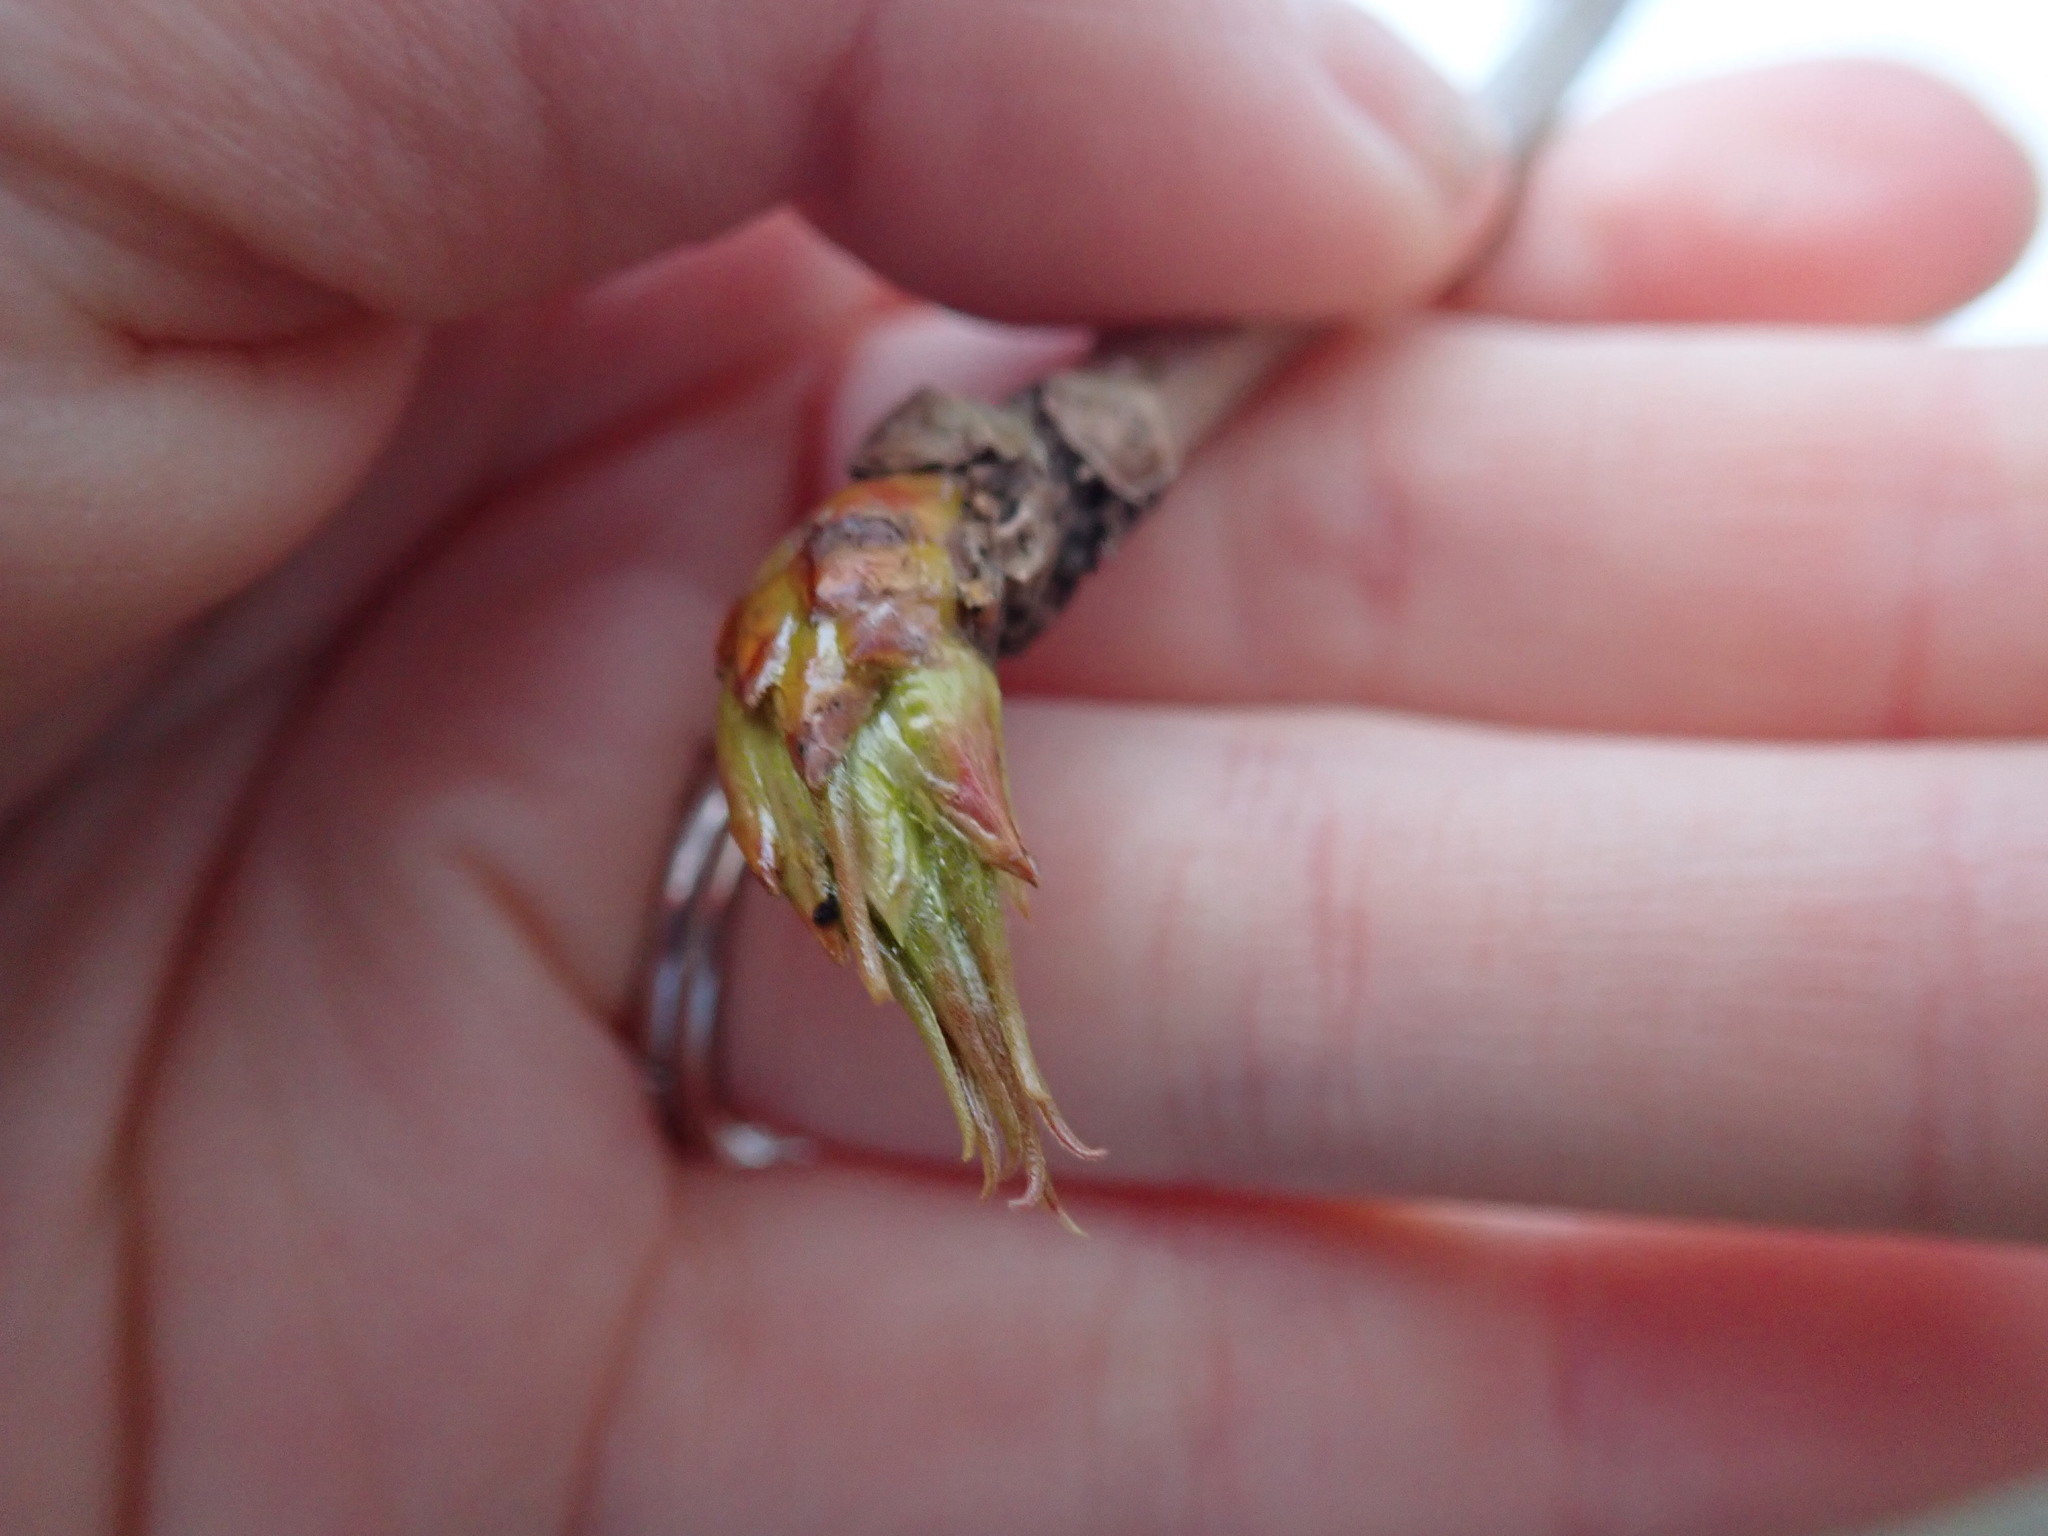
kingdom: Plantae
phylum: Tracheophyta
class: Magnoliopsida
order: Malpighiales
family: Salicaceae
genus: Populus
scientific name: Populus deltoides
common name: Eastern cottonwood
